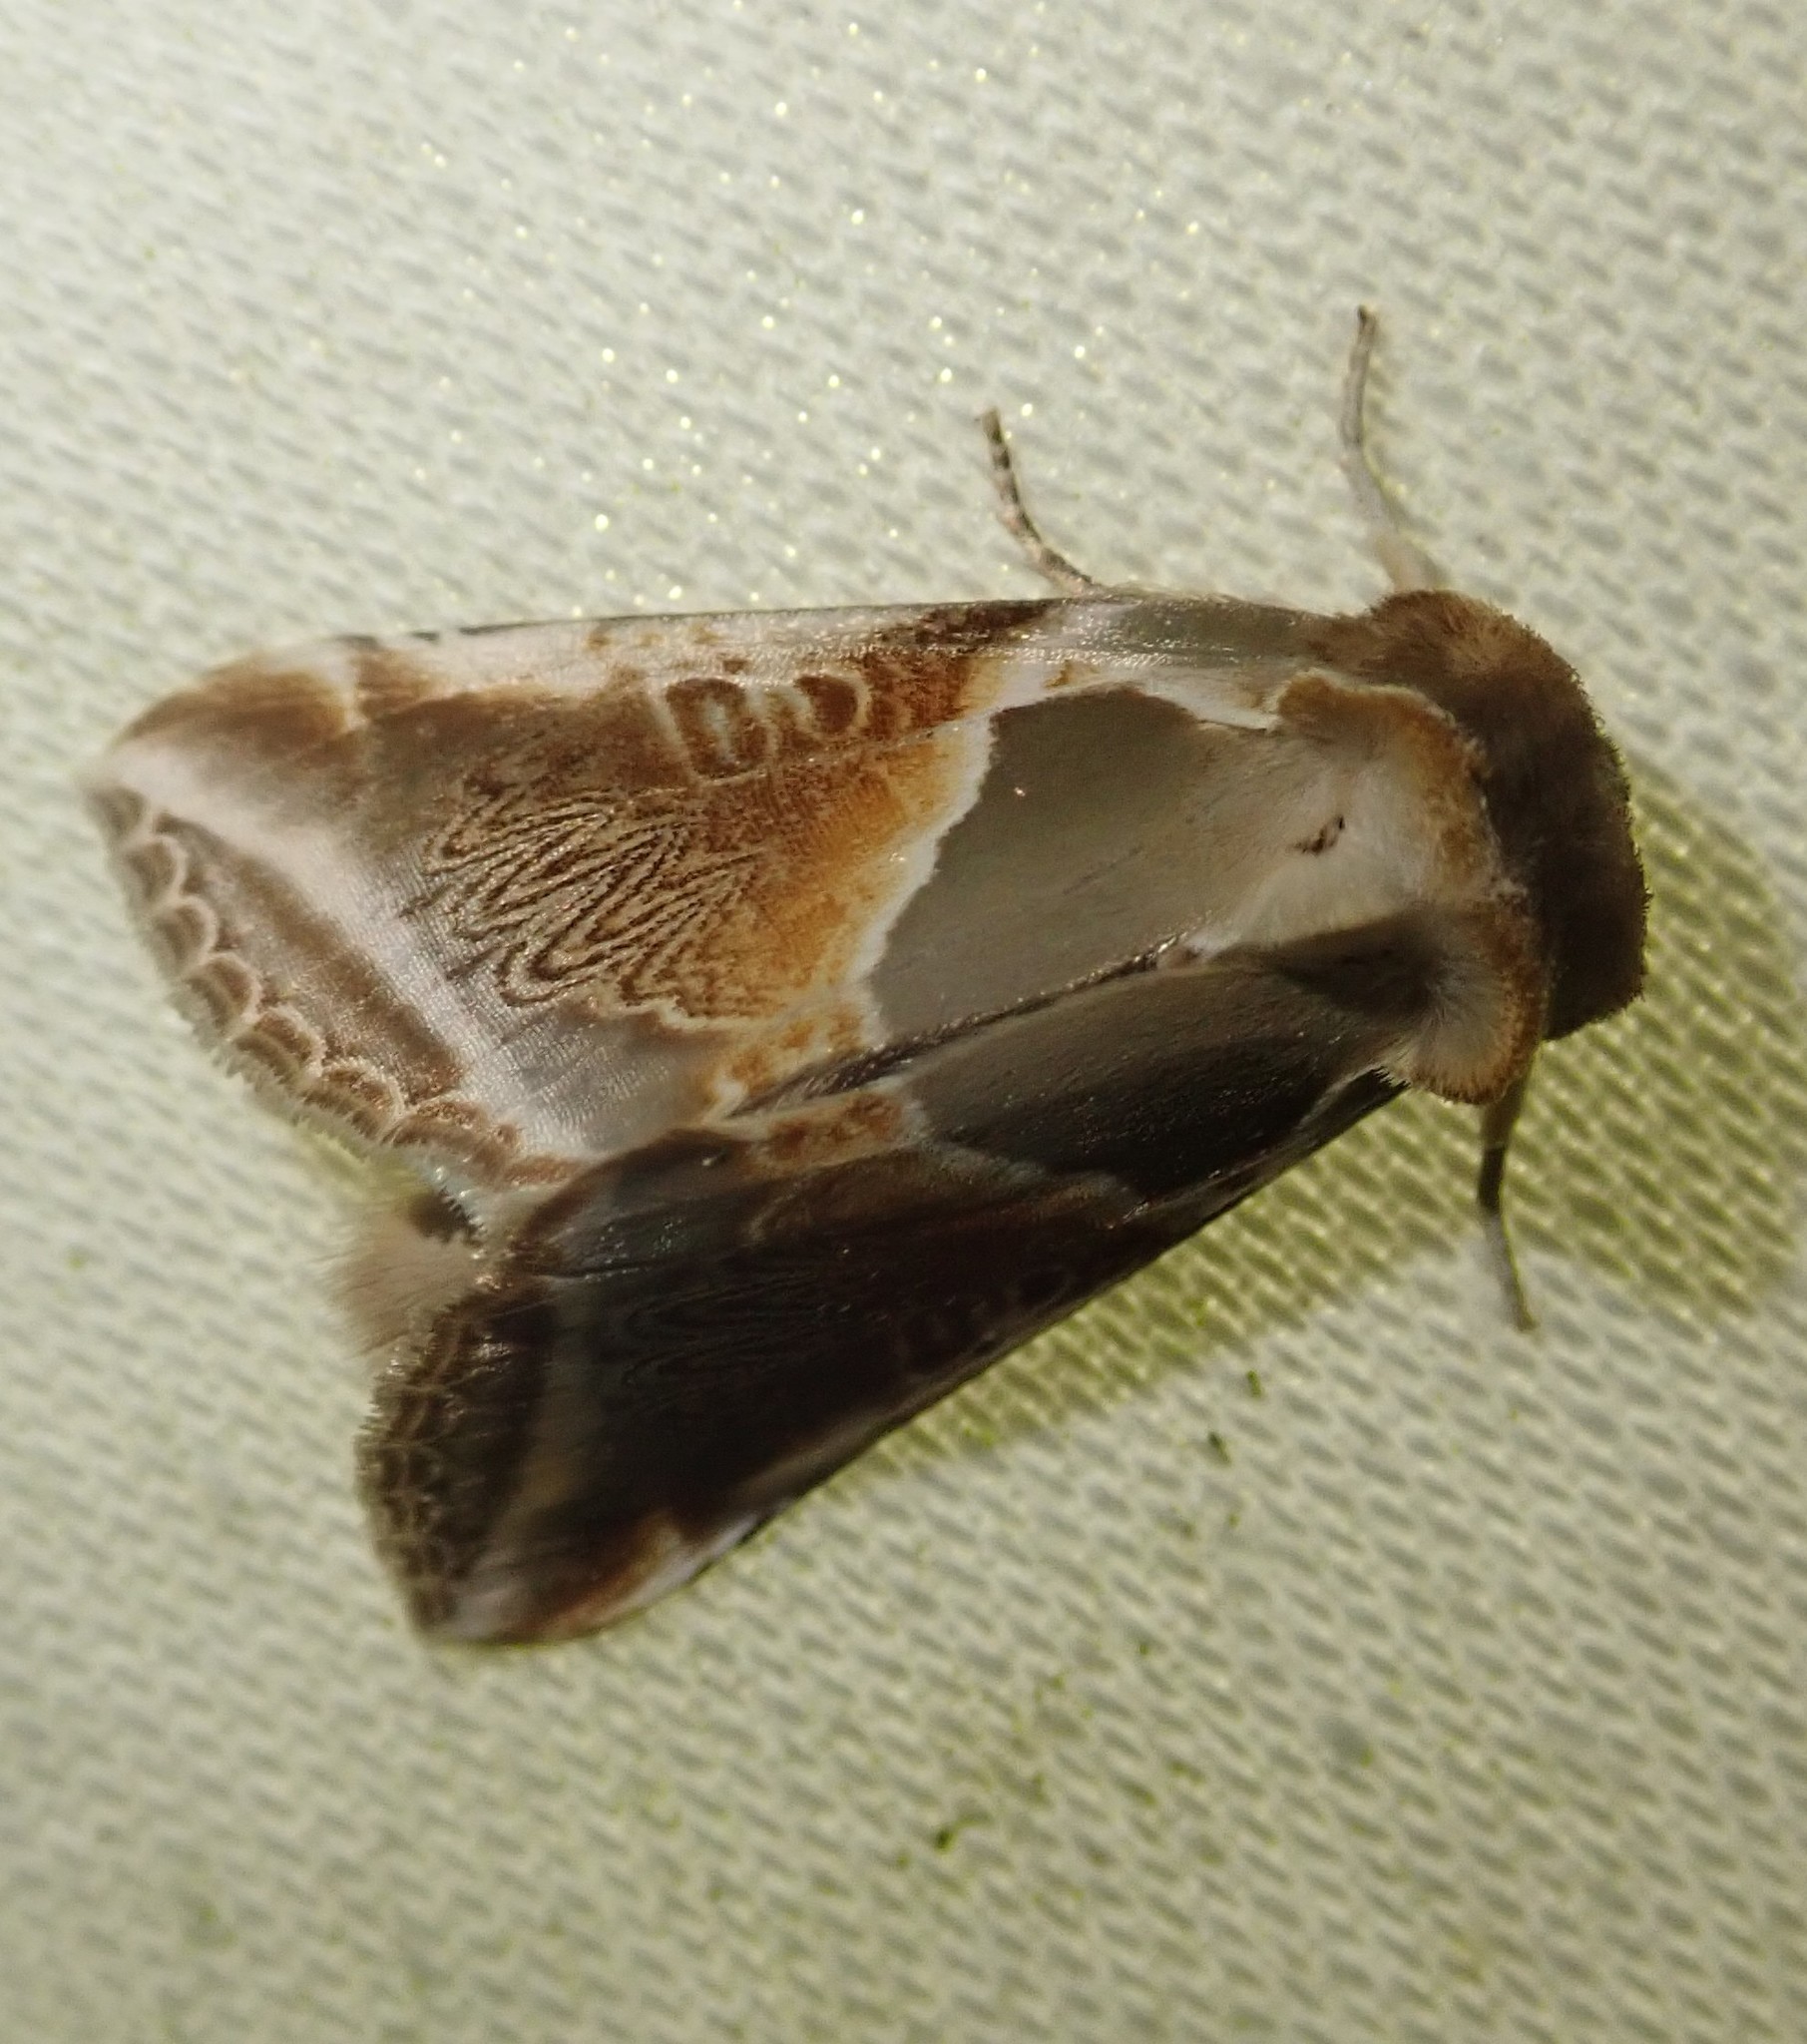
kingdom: Animalia
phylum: Arthropoda
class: Insecta
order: Lepidoptera
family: Drepanidae
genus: Habrosyne
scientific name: Habrosyne pyritoides
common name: Buff arches
